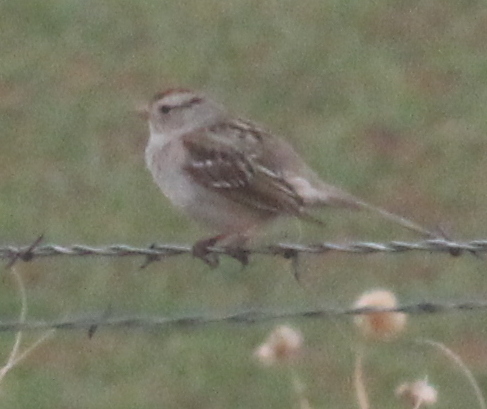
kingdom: Animalia
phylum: Chordata
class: Aves
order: Passeriformes
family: Passerellidae
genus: Zonotrichia
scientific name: Zonotrichia leucophrys
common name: White-crowned sparrow
